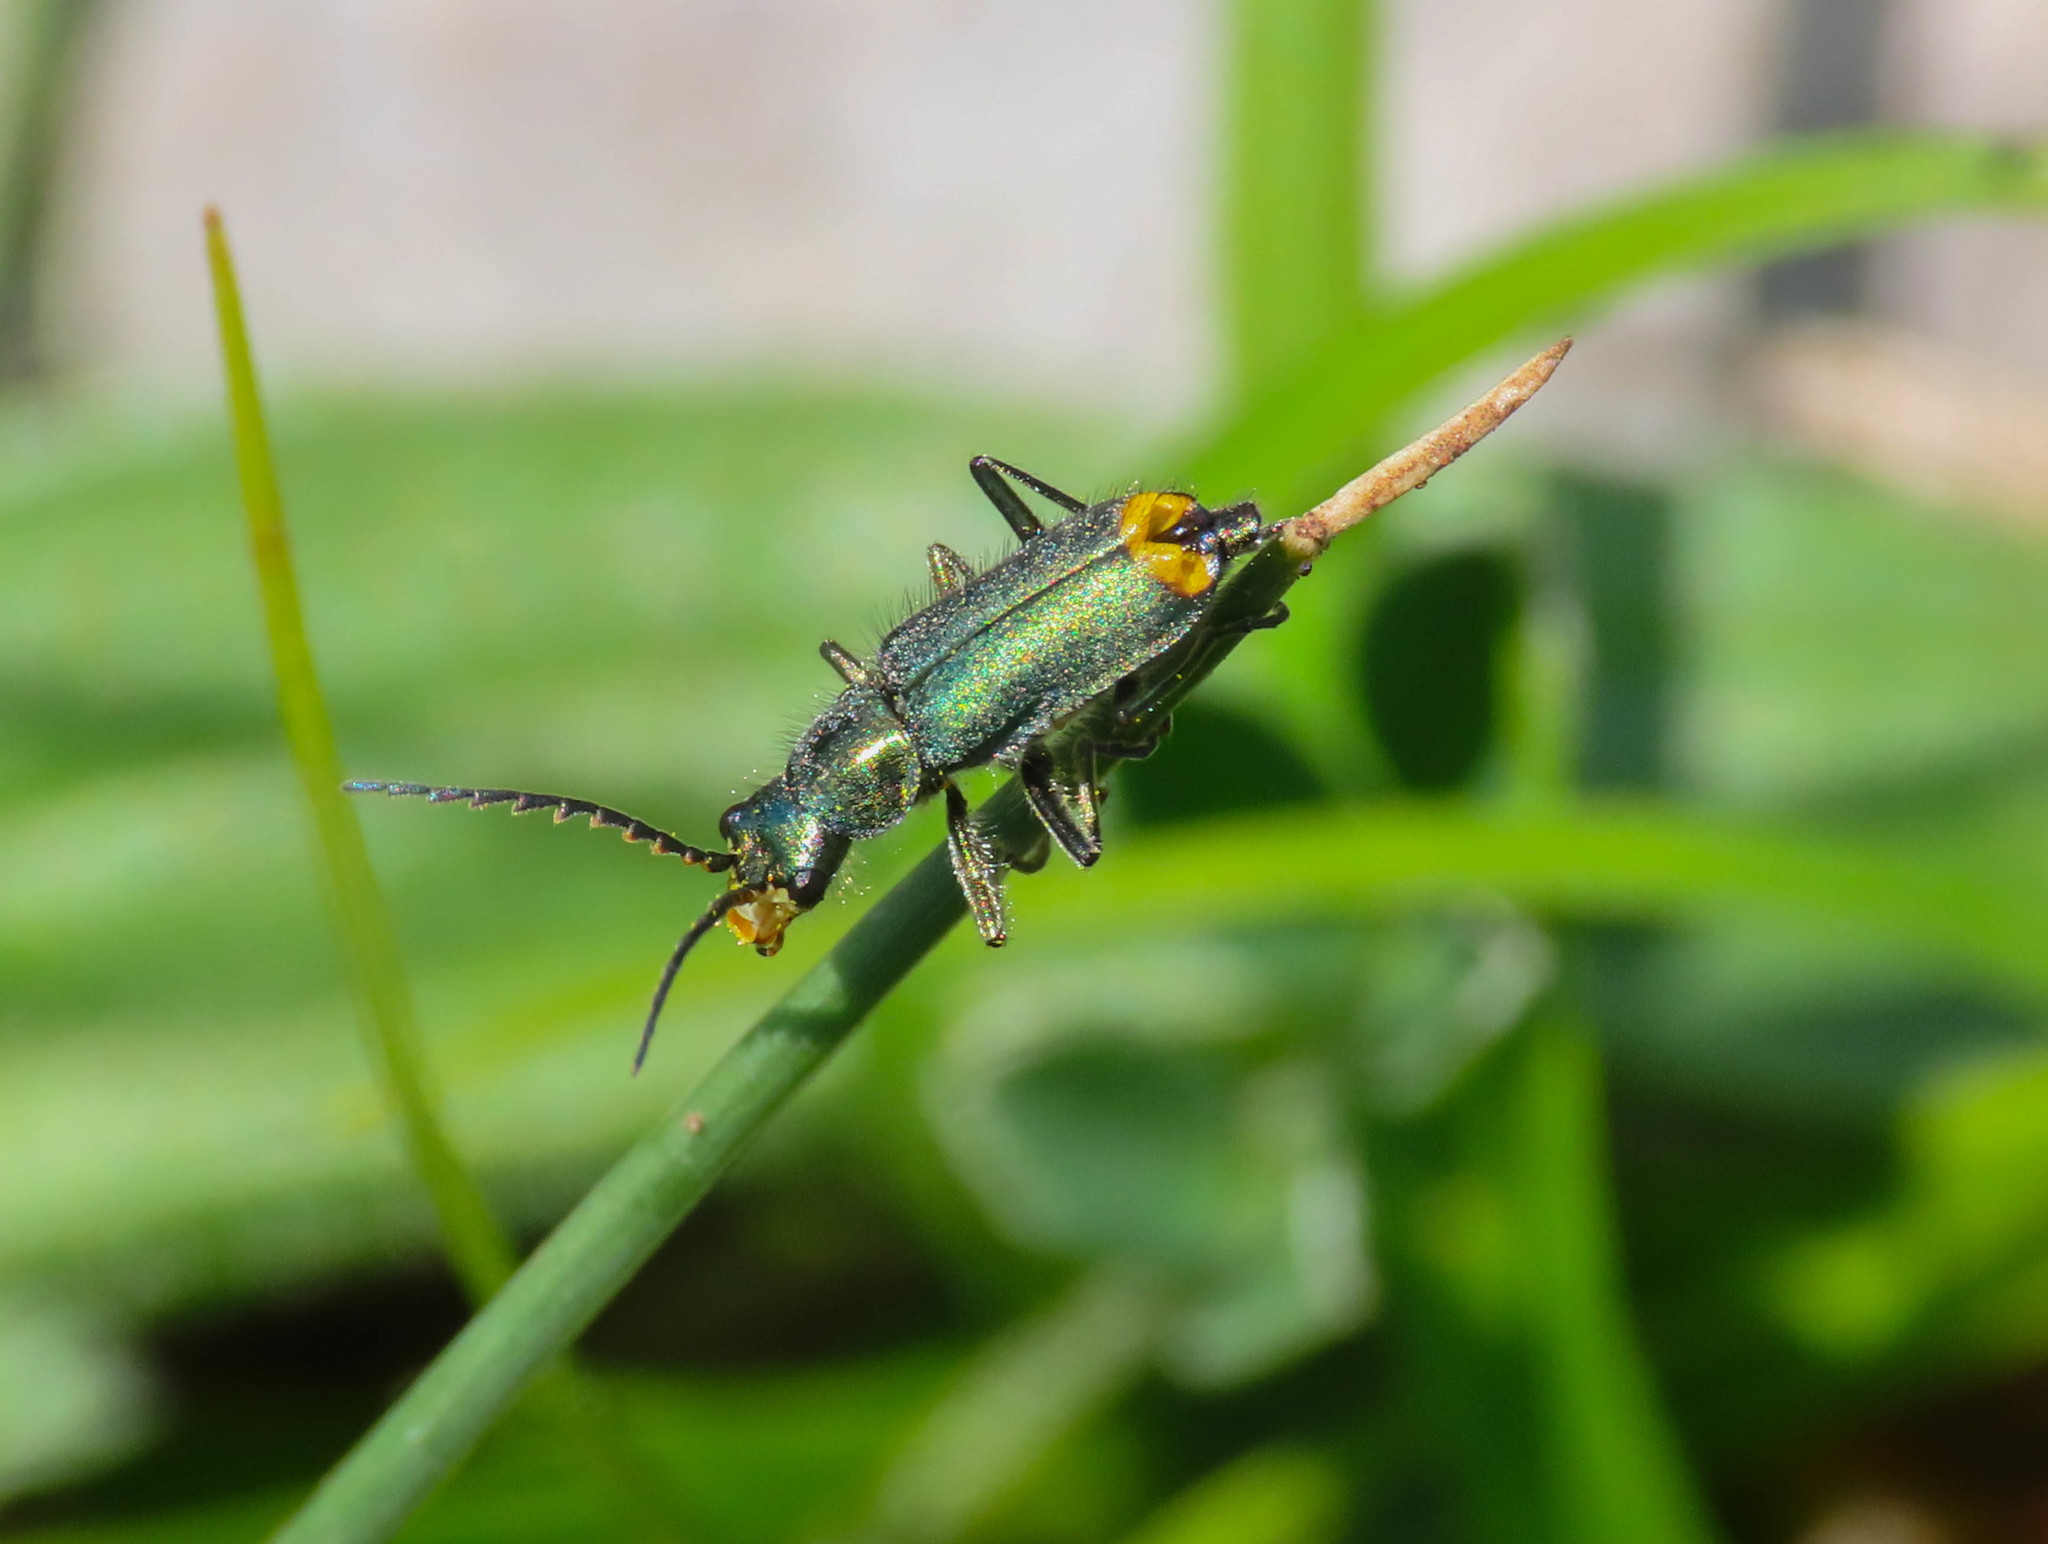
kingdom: Animalia
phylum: Arthropoda
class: Insecta
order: Coleoptera
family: Malachiidae
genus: Clanoptilus
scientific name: Clanoptilus italicus
